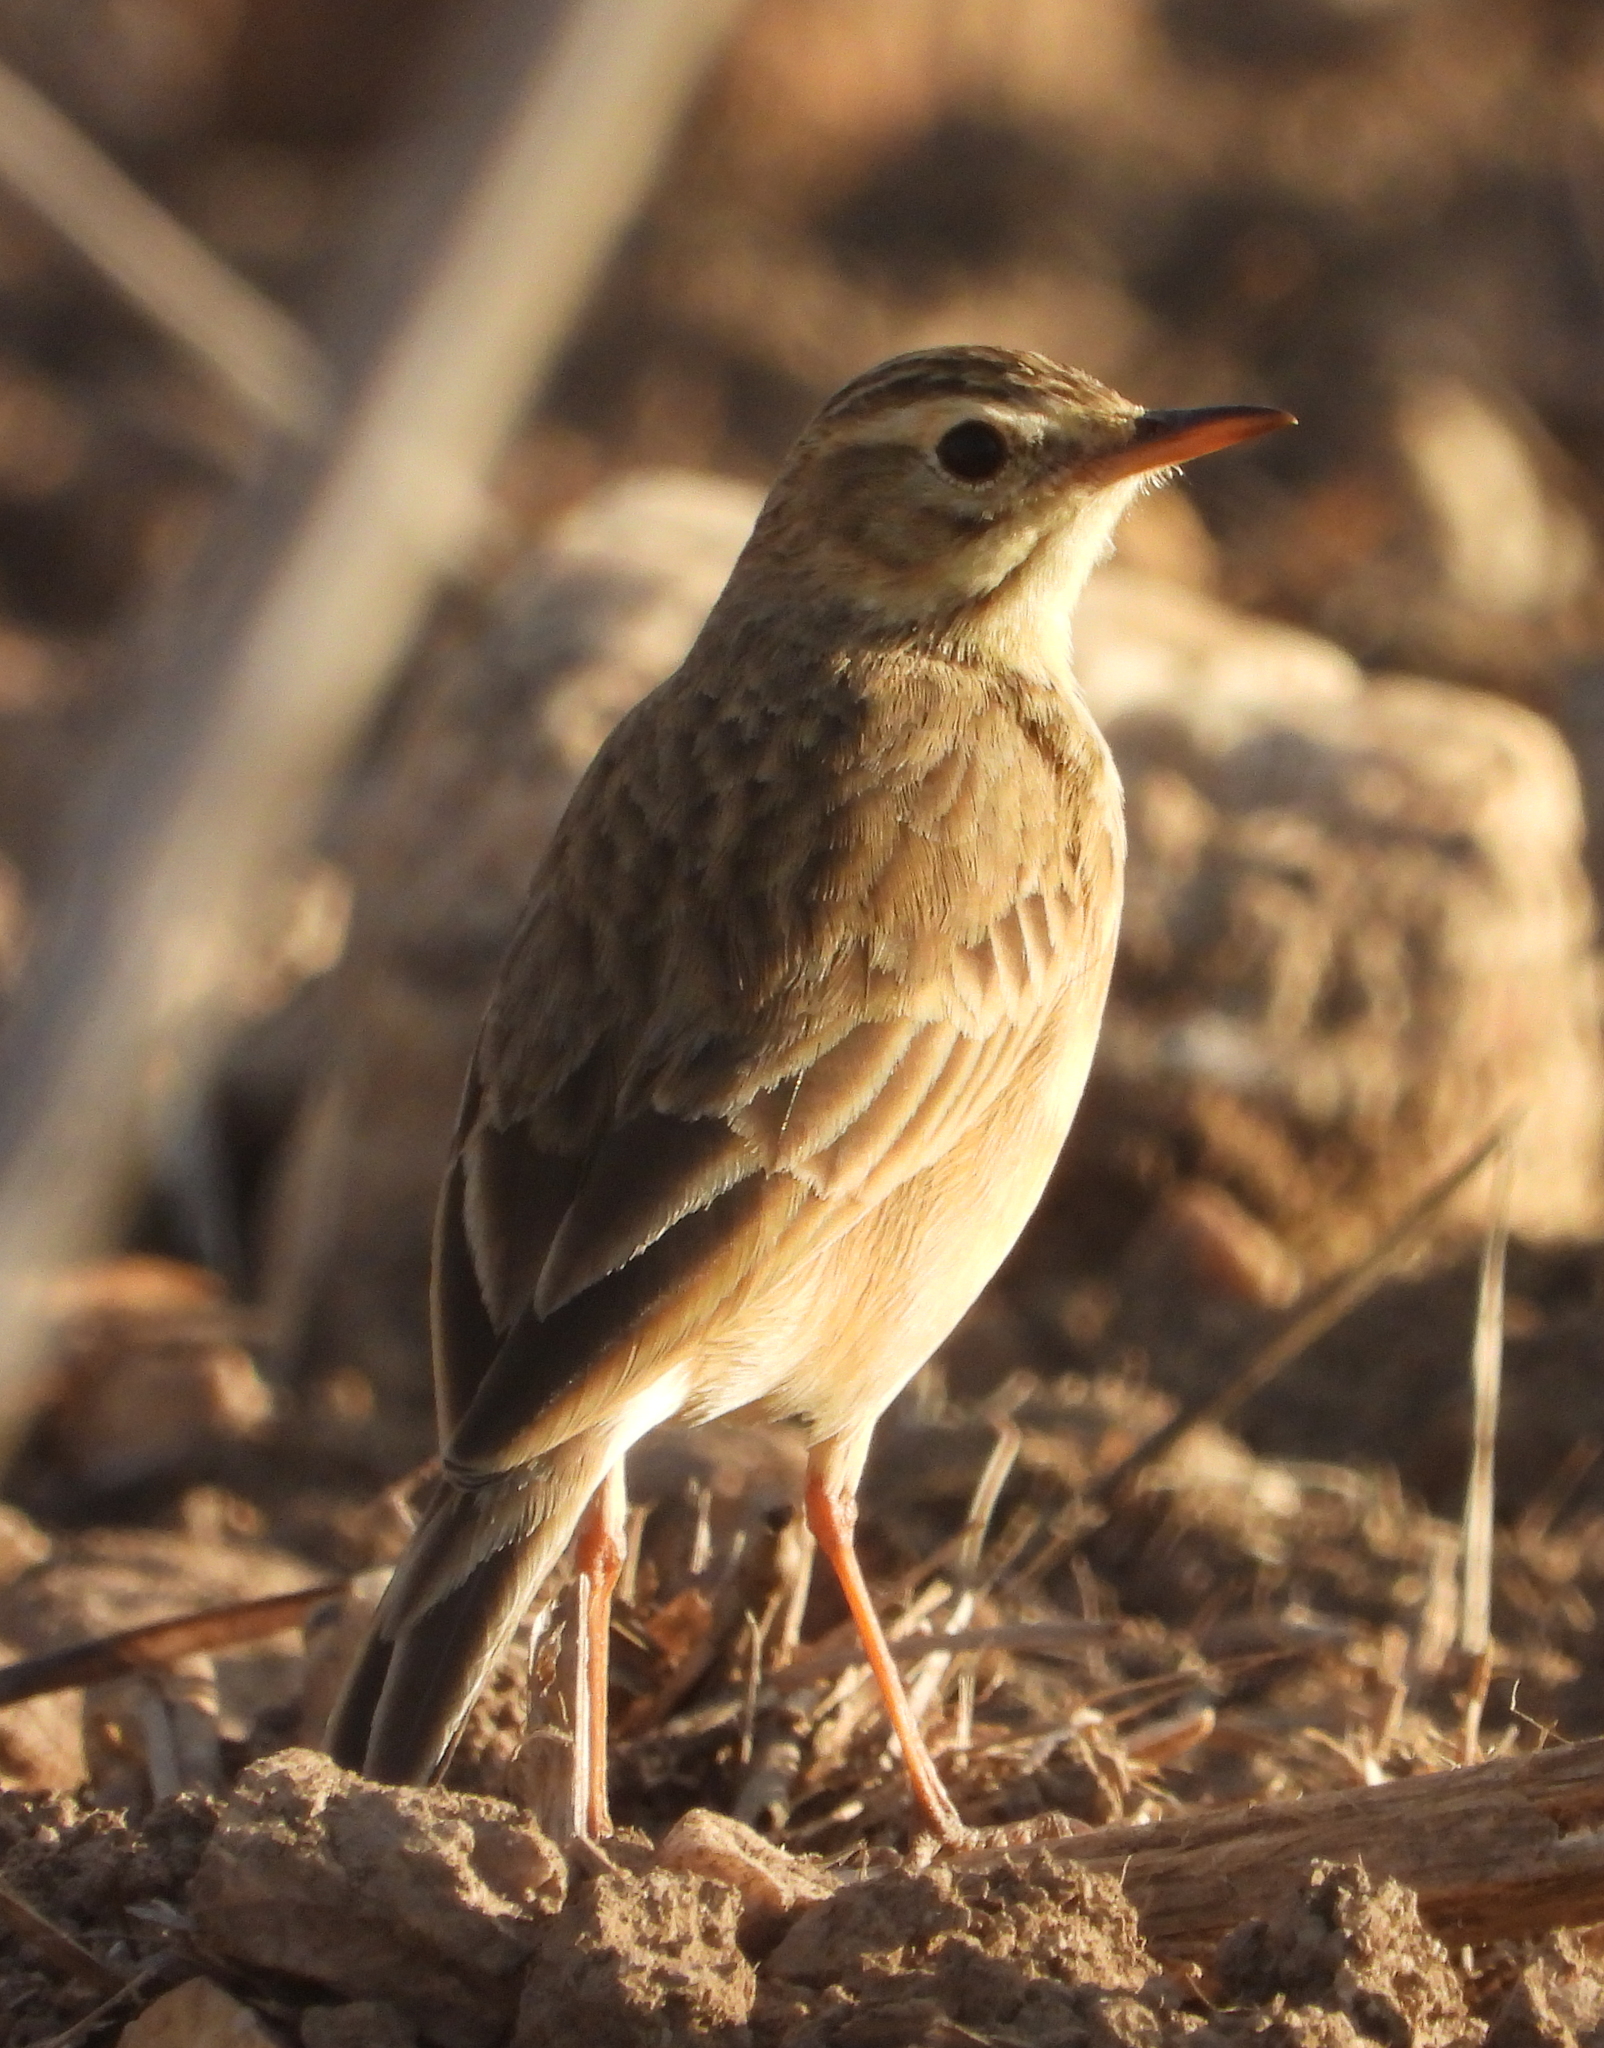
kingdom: Animalia
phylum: Chordata
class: Aves
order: Passeriformes
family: Motacillidae
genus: Anthus
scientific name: Anthus cinnamomeus
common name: African pipit
